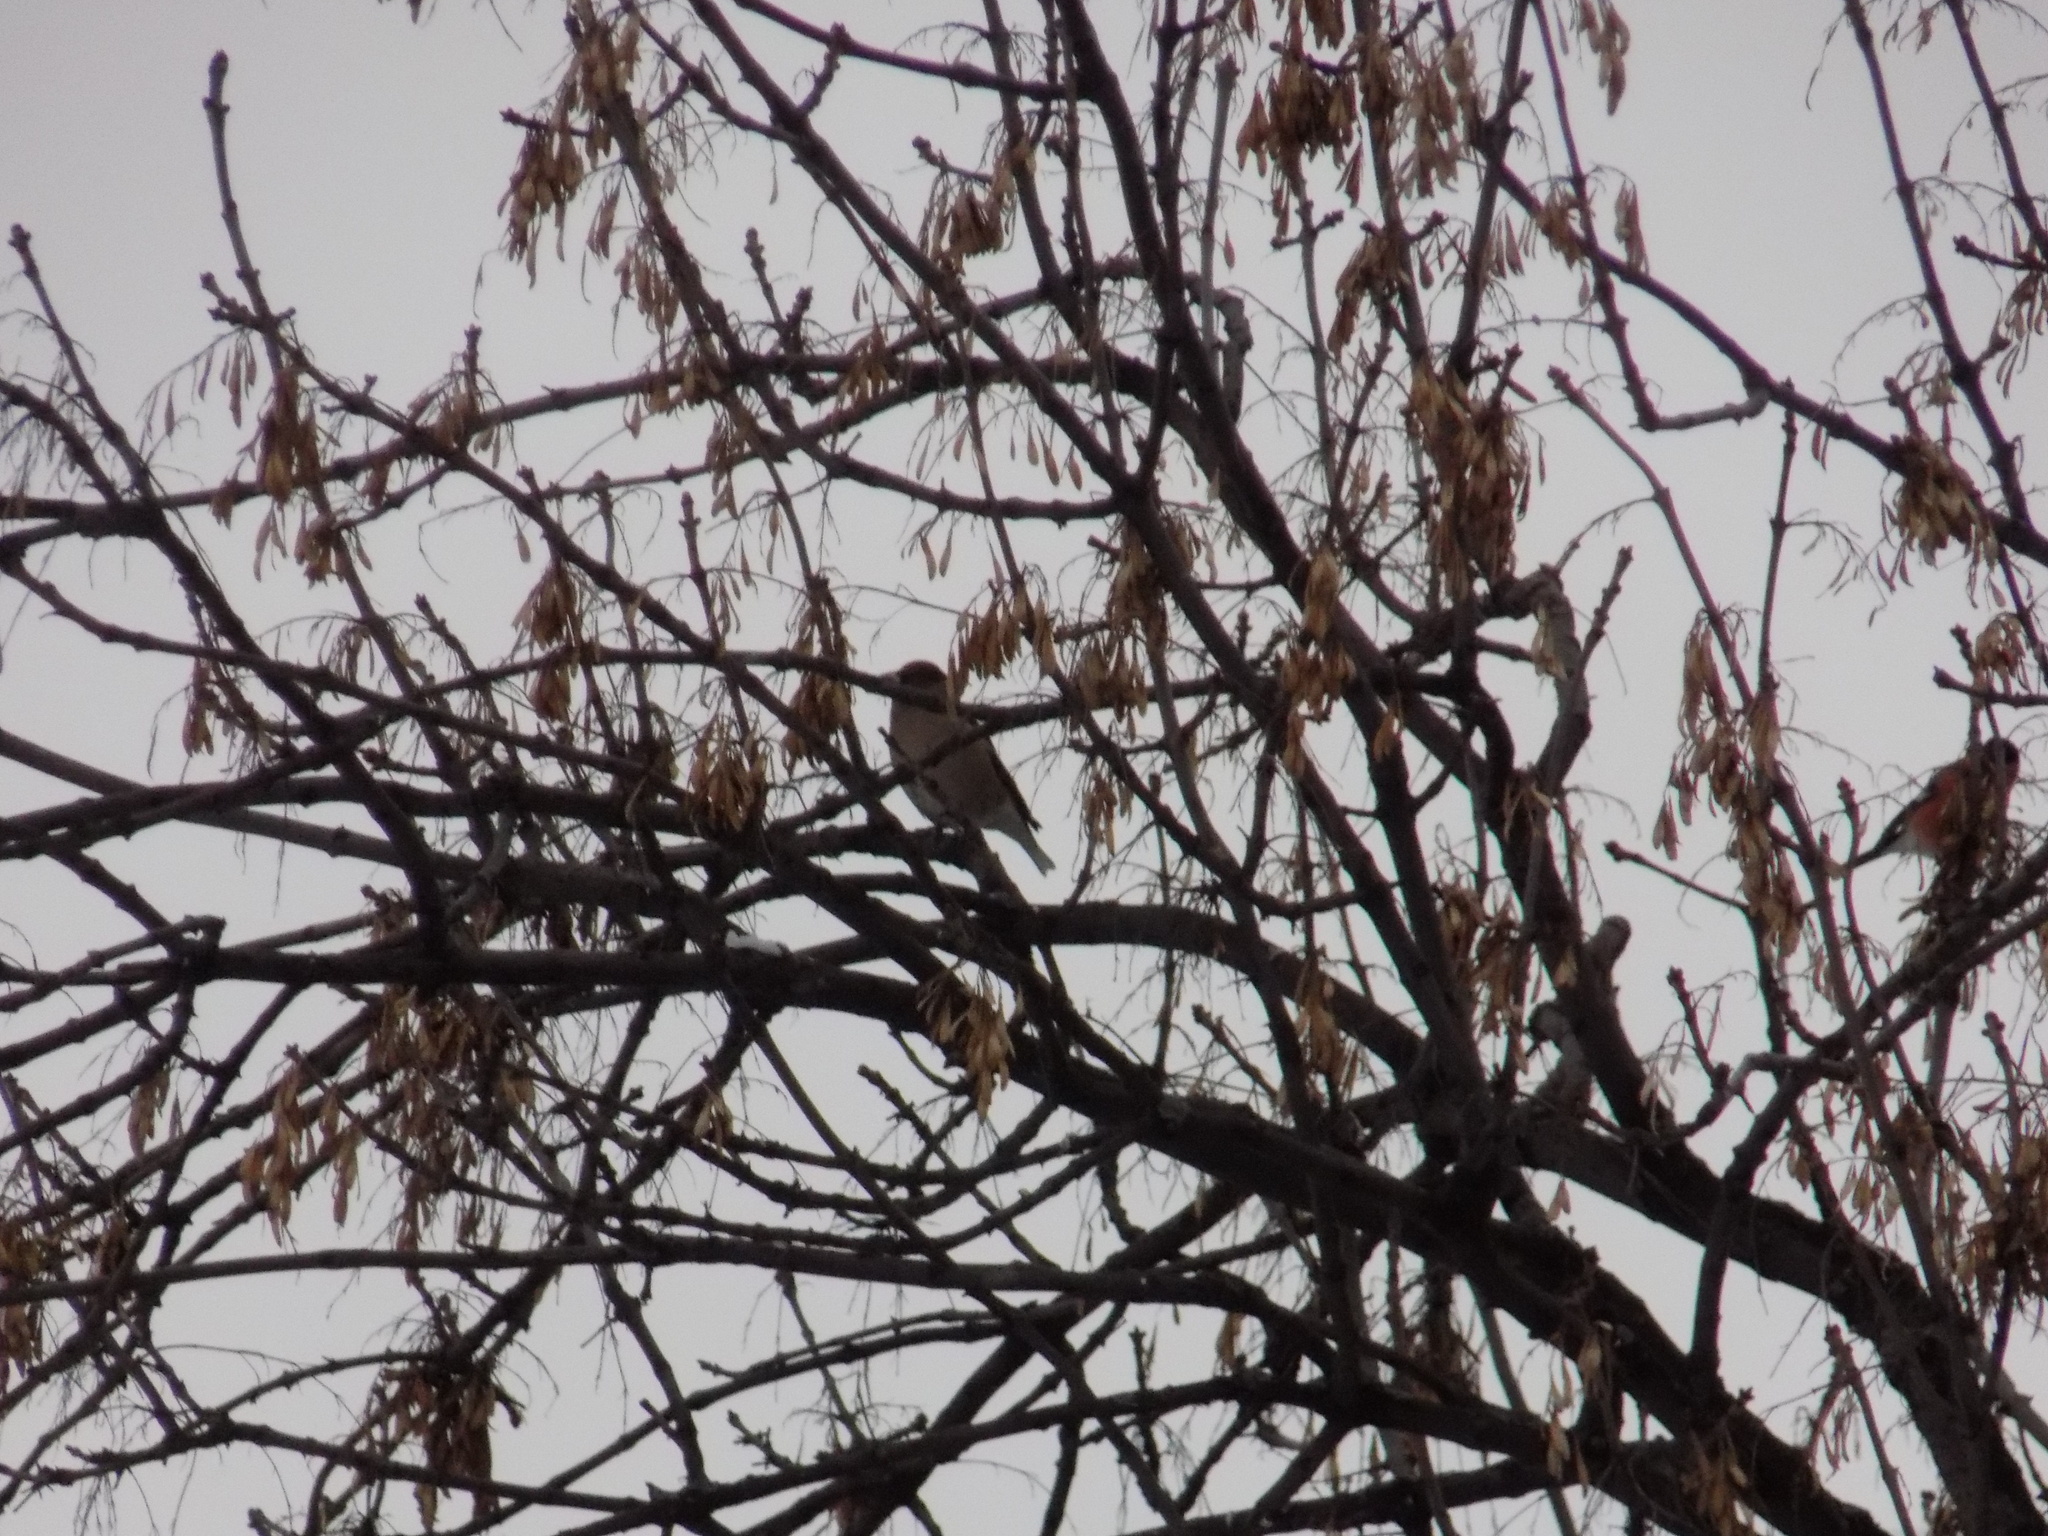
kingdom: Animalia
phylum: Chordata
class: Aves
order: Passeriformes
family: Fringillidae
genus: Coccothraustes
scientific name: Coccothraustes coccothraustes
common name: Hawfinch
